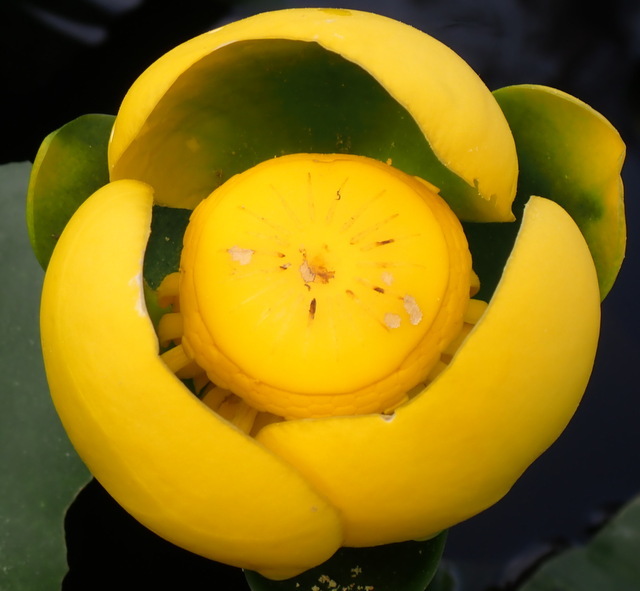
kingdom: Plantae
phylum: Tracheophyta
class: Magnoliopsida
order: Nymphaeales
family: Nymphaeaceae
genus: Nuphar
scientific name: Nuphar advena
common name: Spatter-dock
